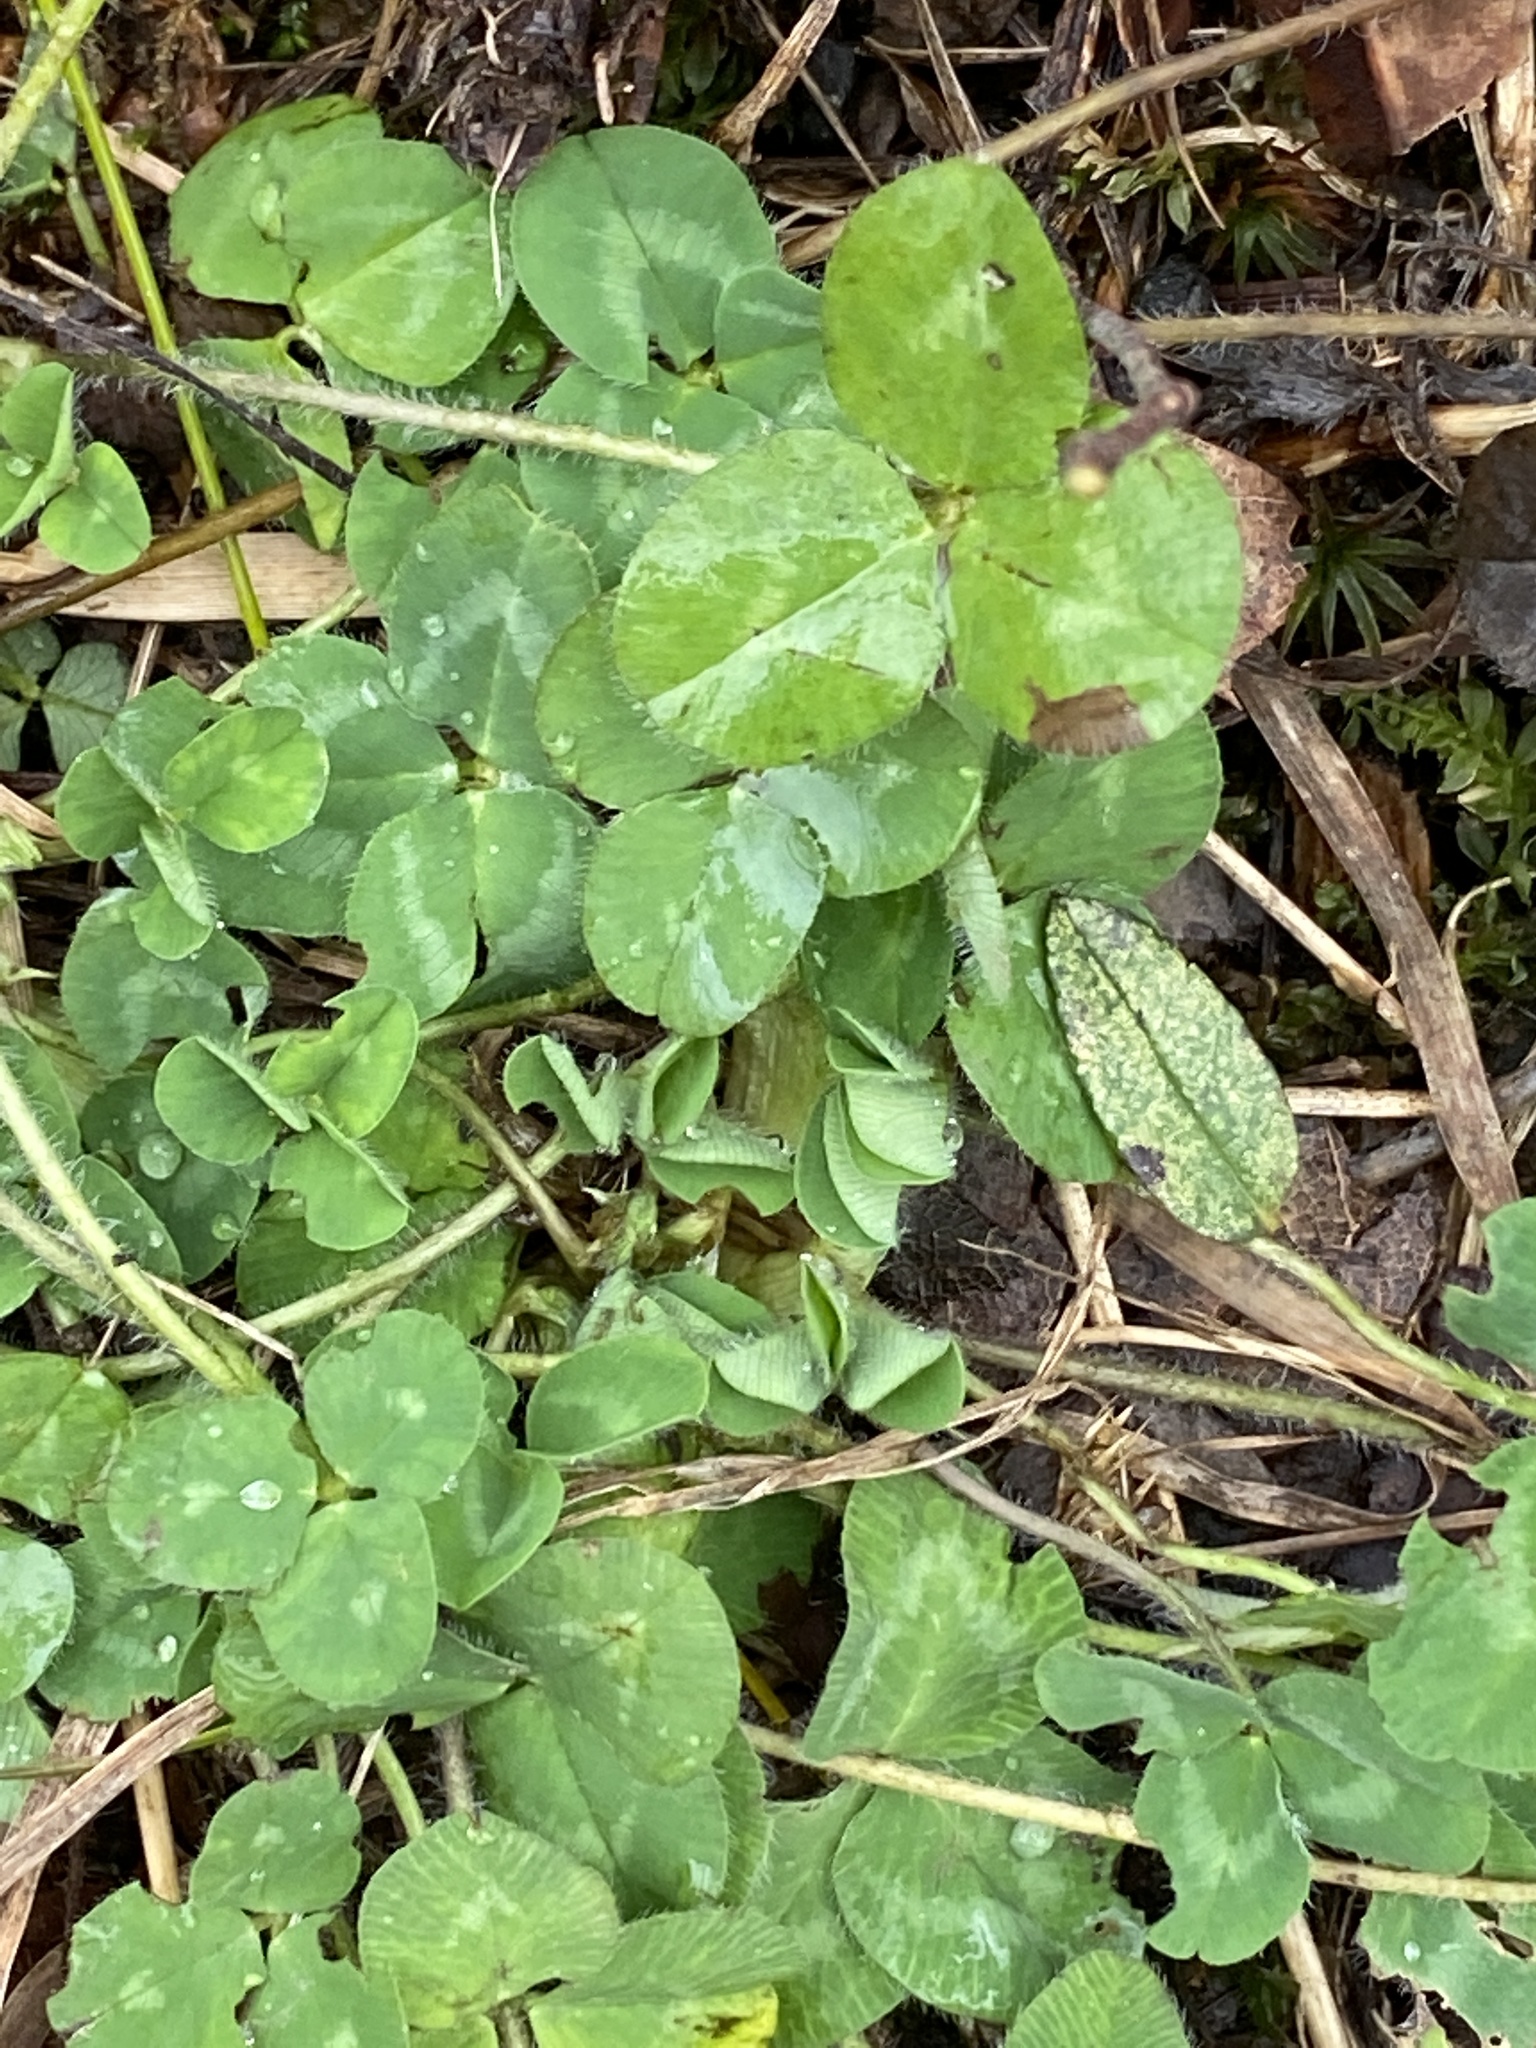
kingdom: Plantae
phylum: Tracheophyta
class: Magnoliopsida
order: Fabales
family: Fabaceae
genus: Trifolium
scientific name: Trifolium pratense
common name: Red clover
